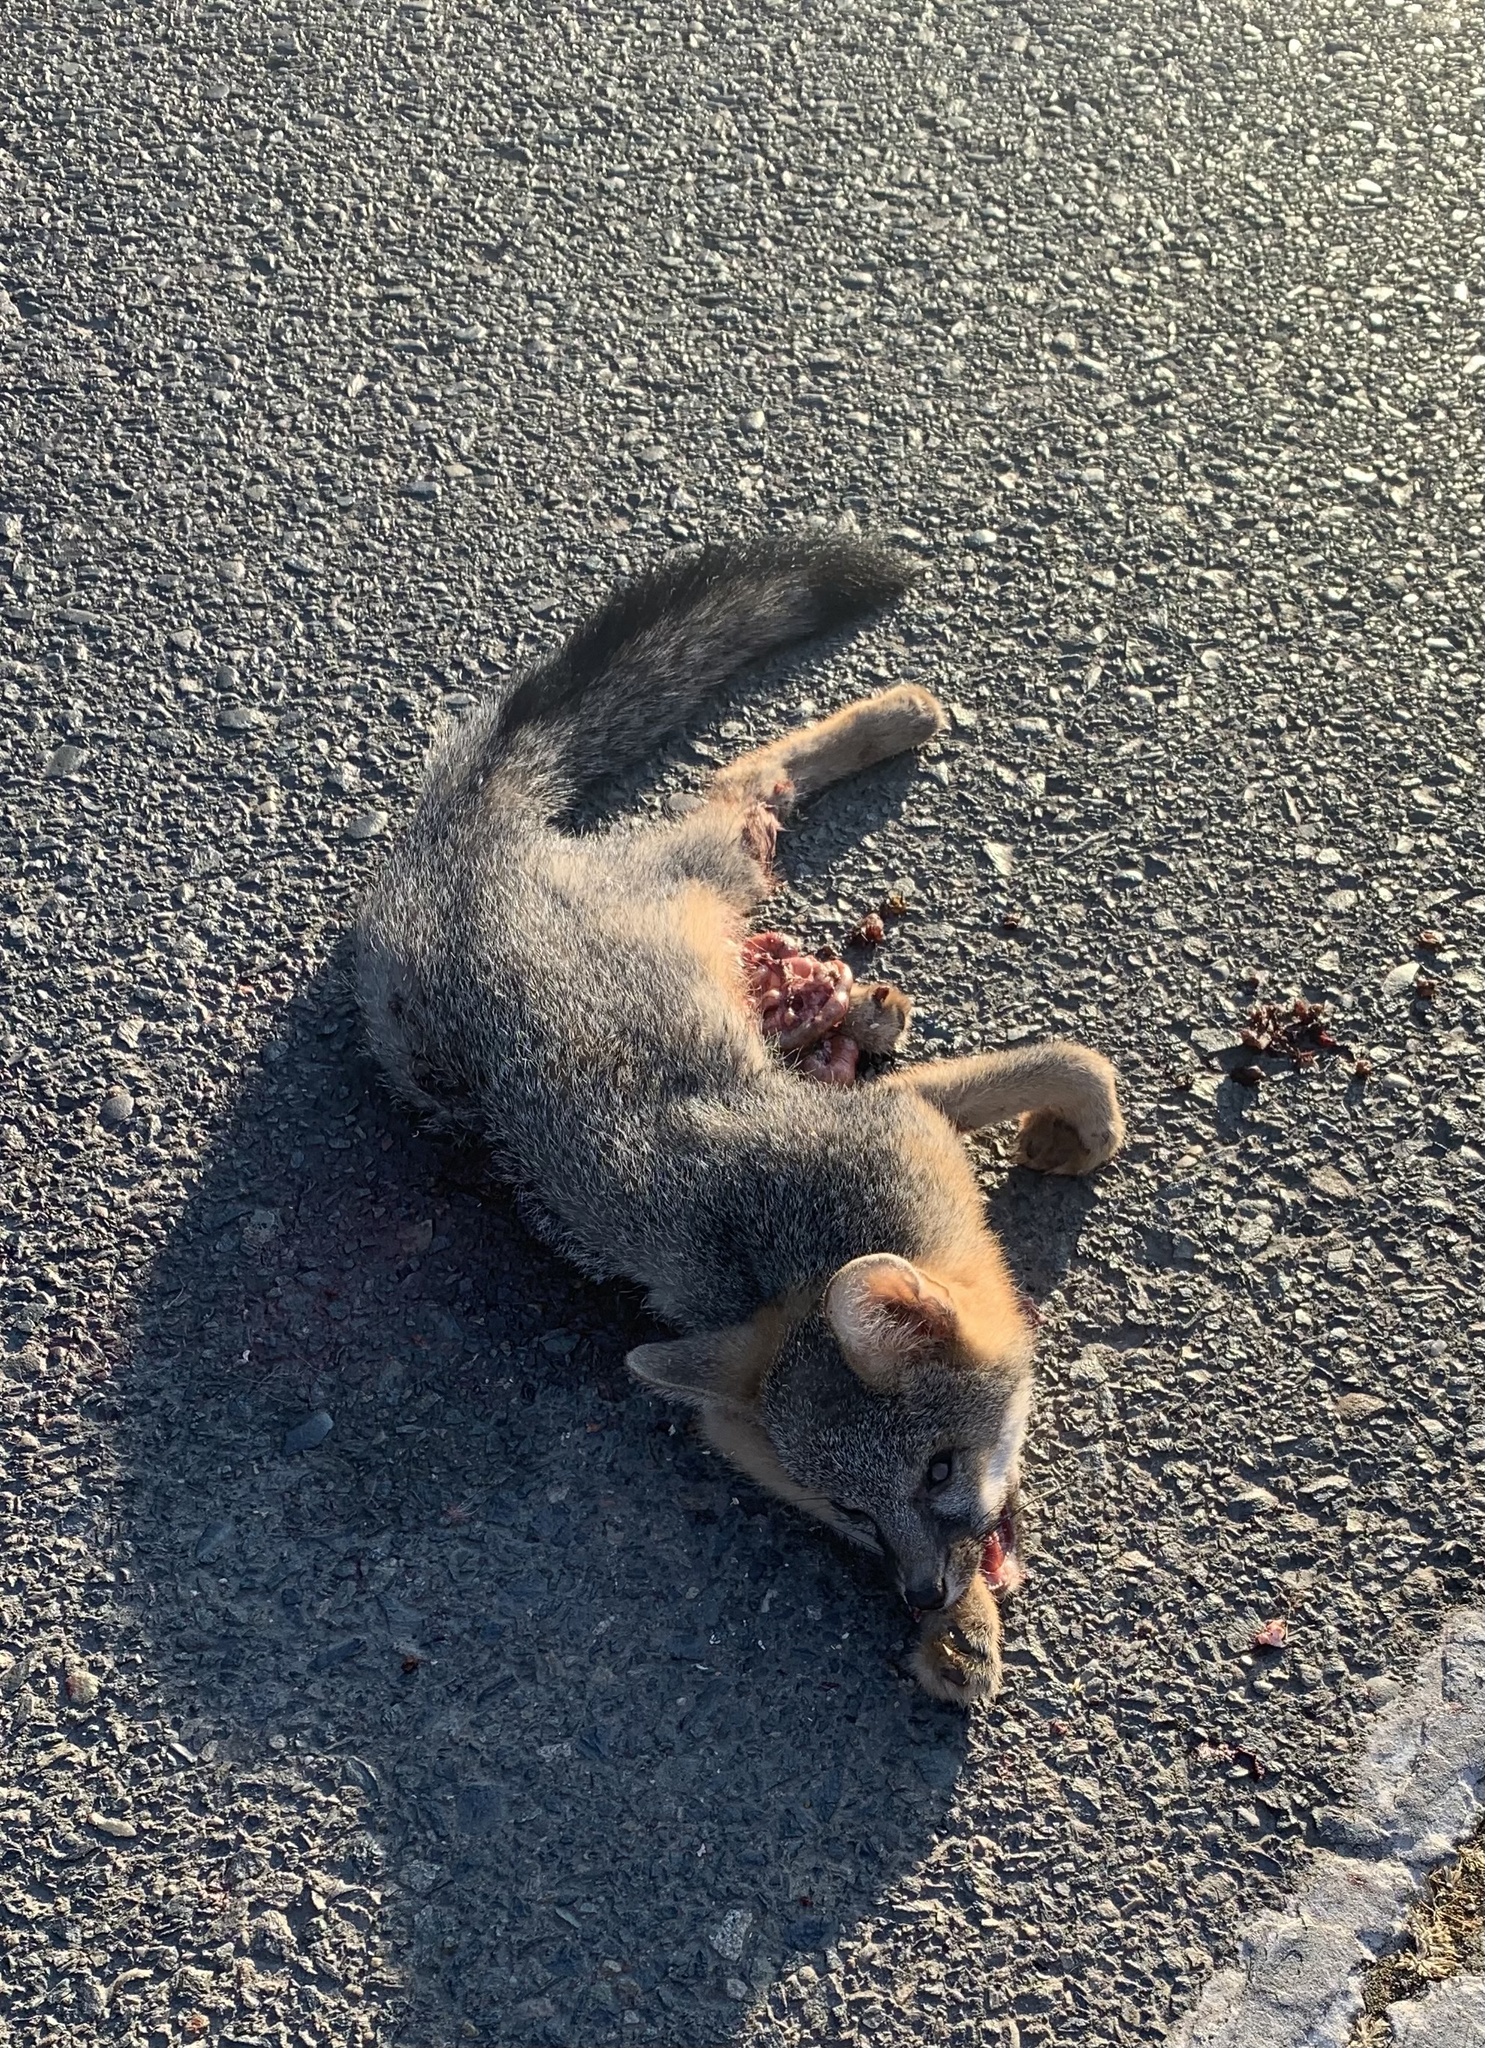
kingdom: Animalia
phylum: Chordata
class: Mammalia
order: Carnivora
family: Canidae
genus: Urocyon
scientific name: Urocyon cinereoargenteus
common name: Gray fox
